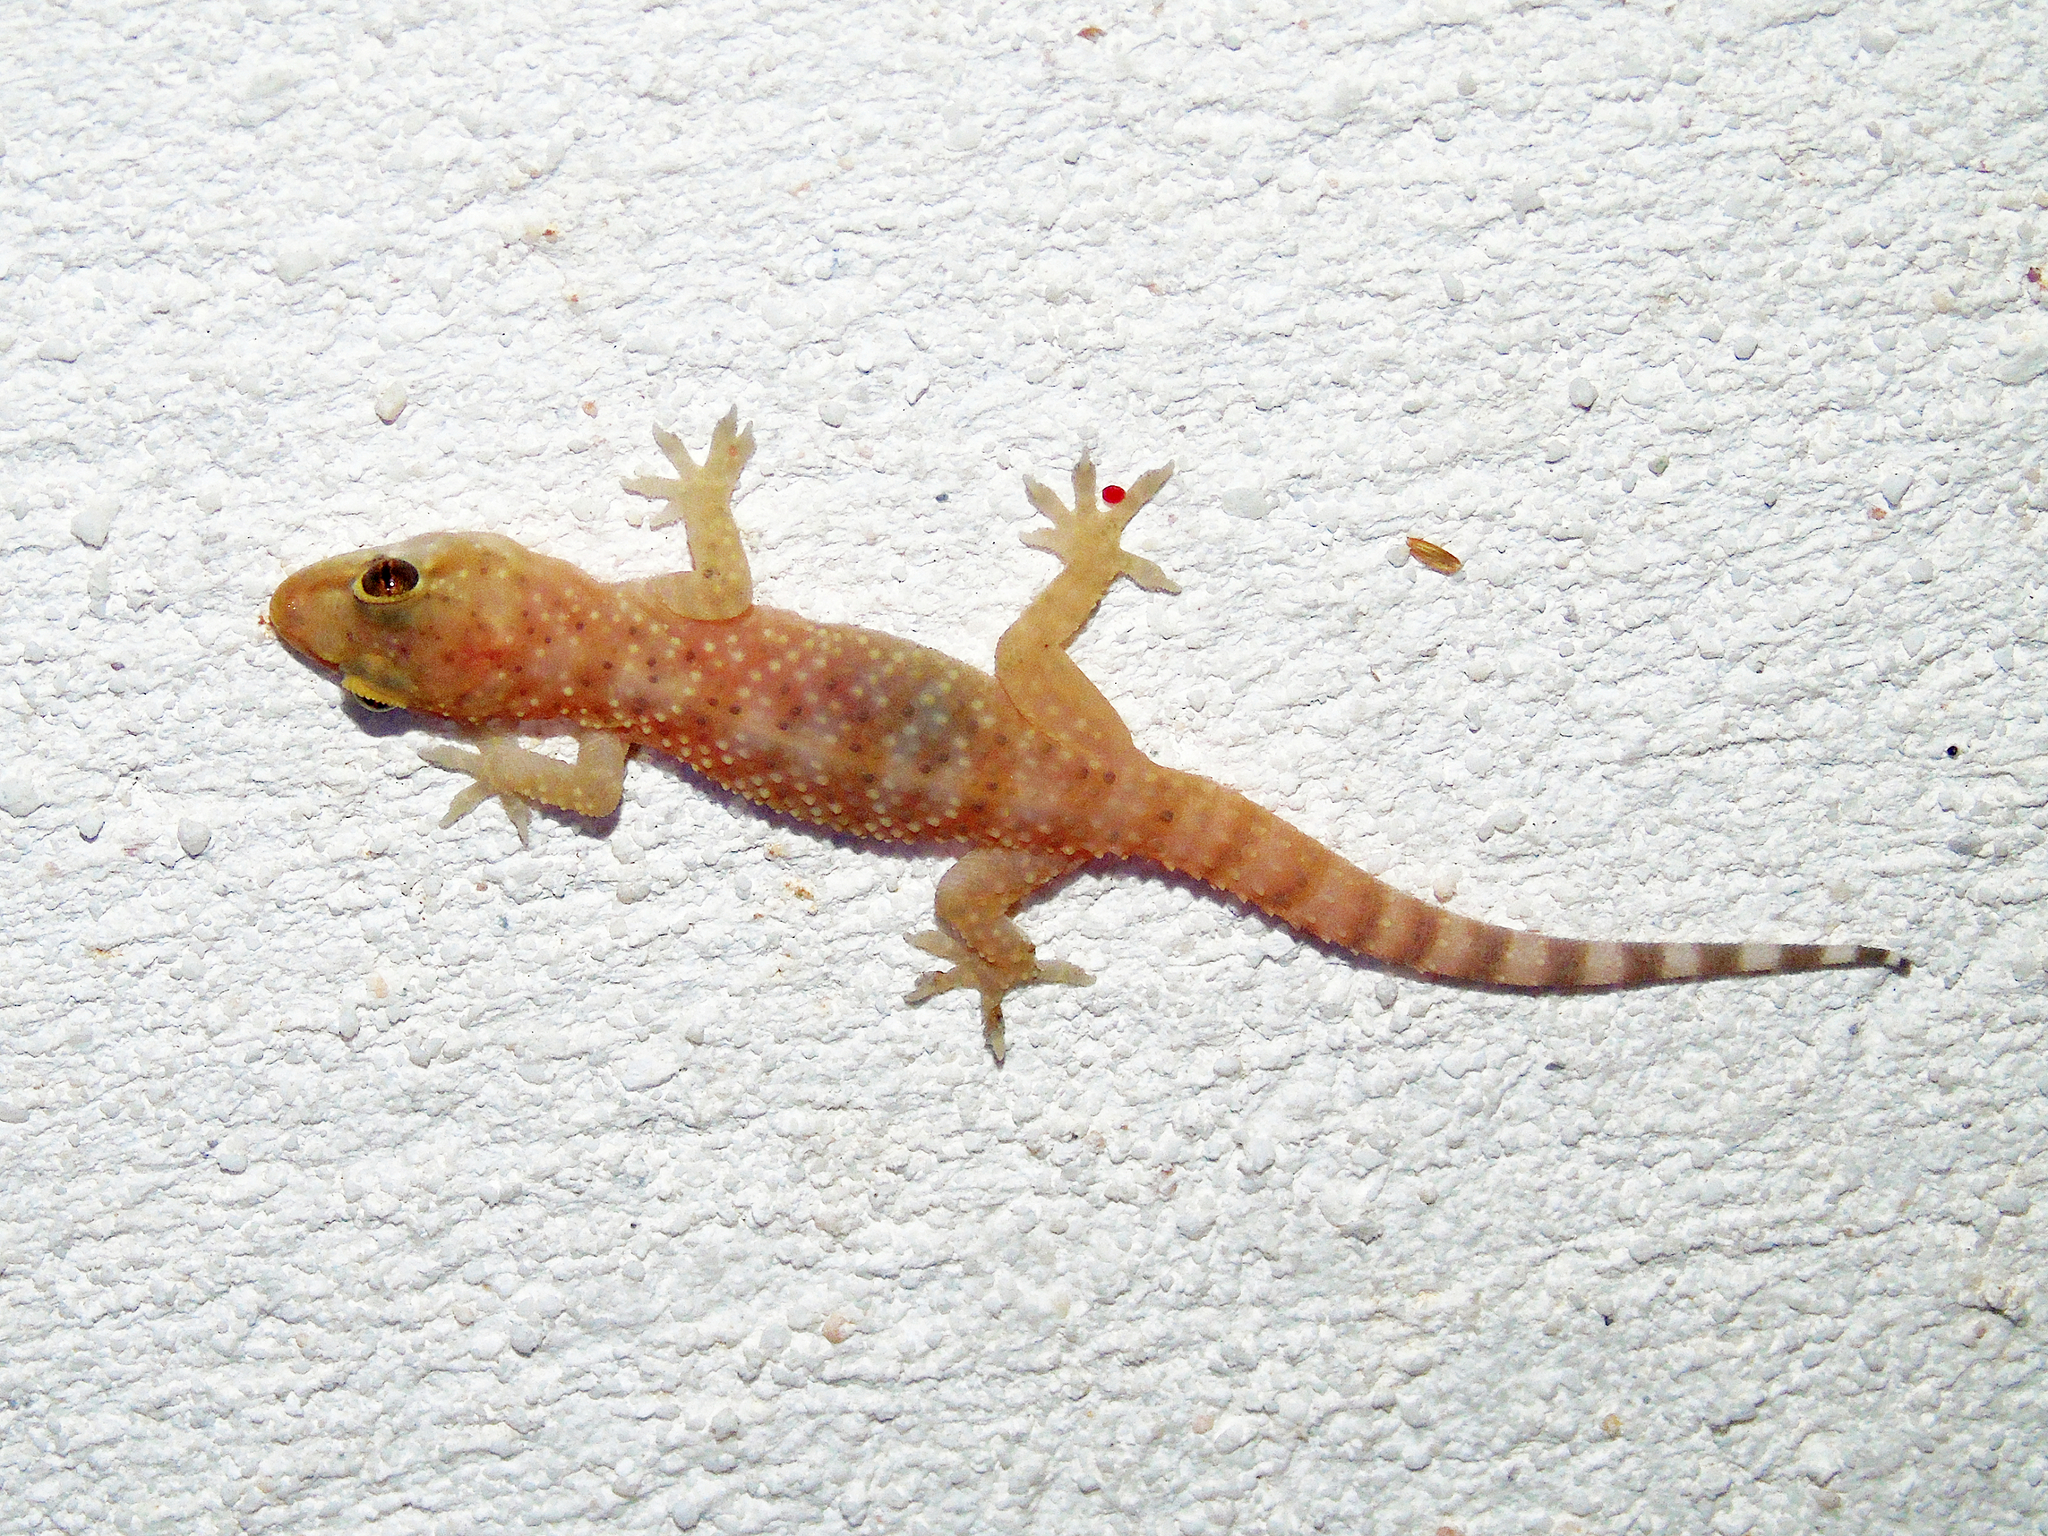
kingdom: Animalia
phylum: Chordata
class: Squamata
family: Gekkonidae
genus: Hemidactylus
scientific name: Hemidactylus turcicus
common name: Turkish gecko
